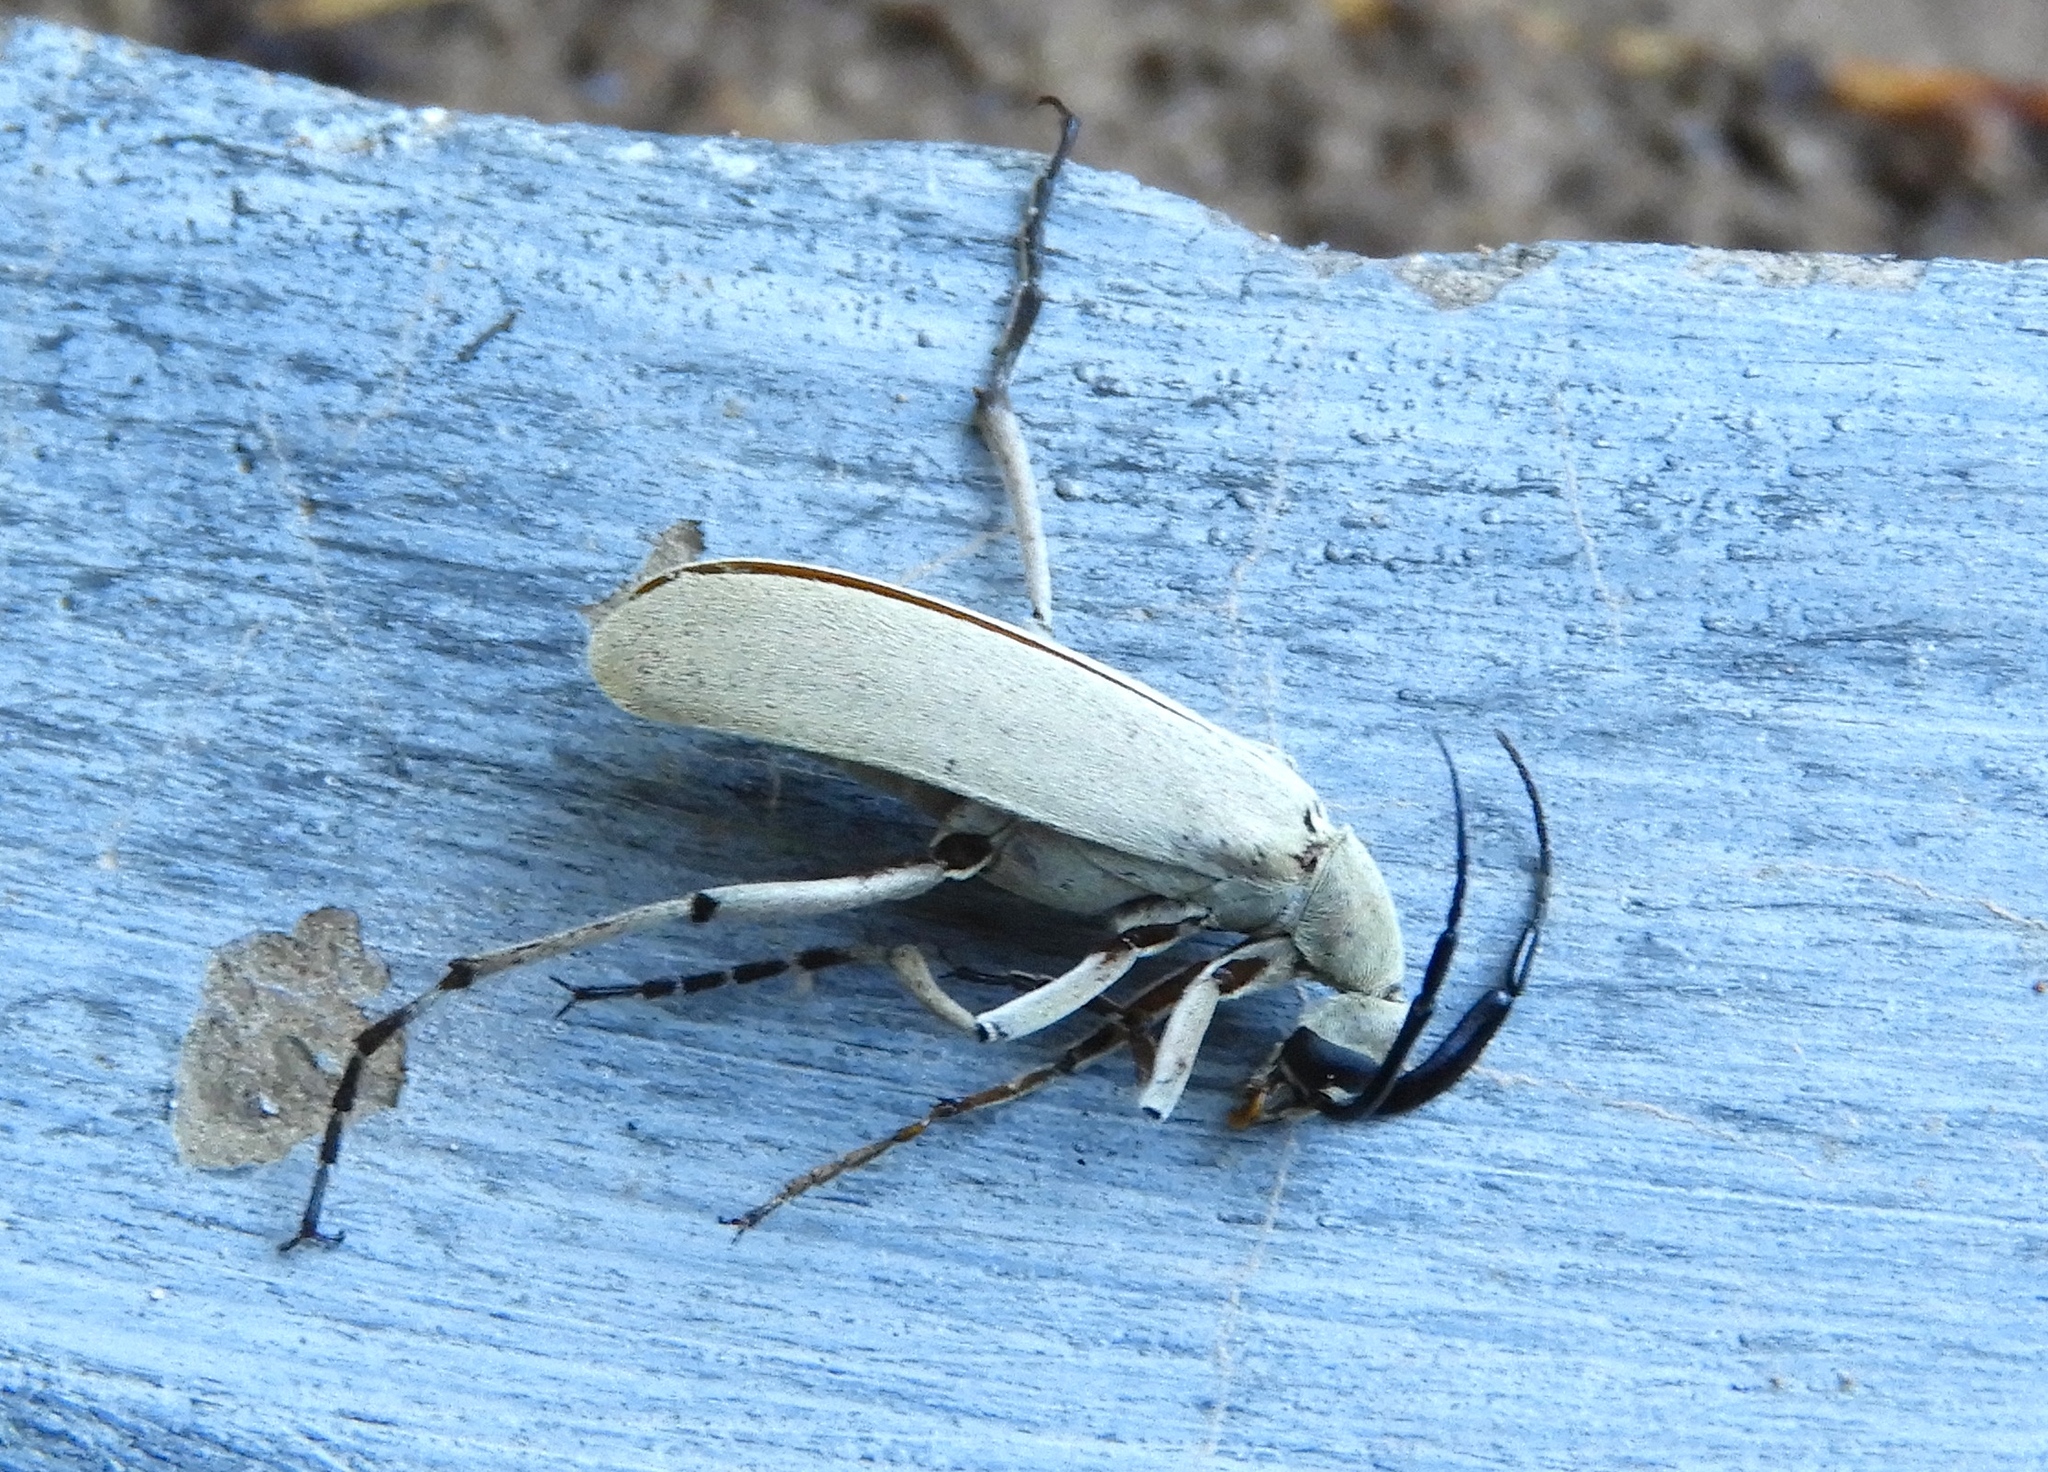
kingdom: Animalia
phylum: Arthropoda
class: Insecta
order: Coleoptera
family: Meloidae
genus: Epicauta
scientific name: Epicauta
